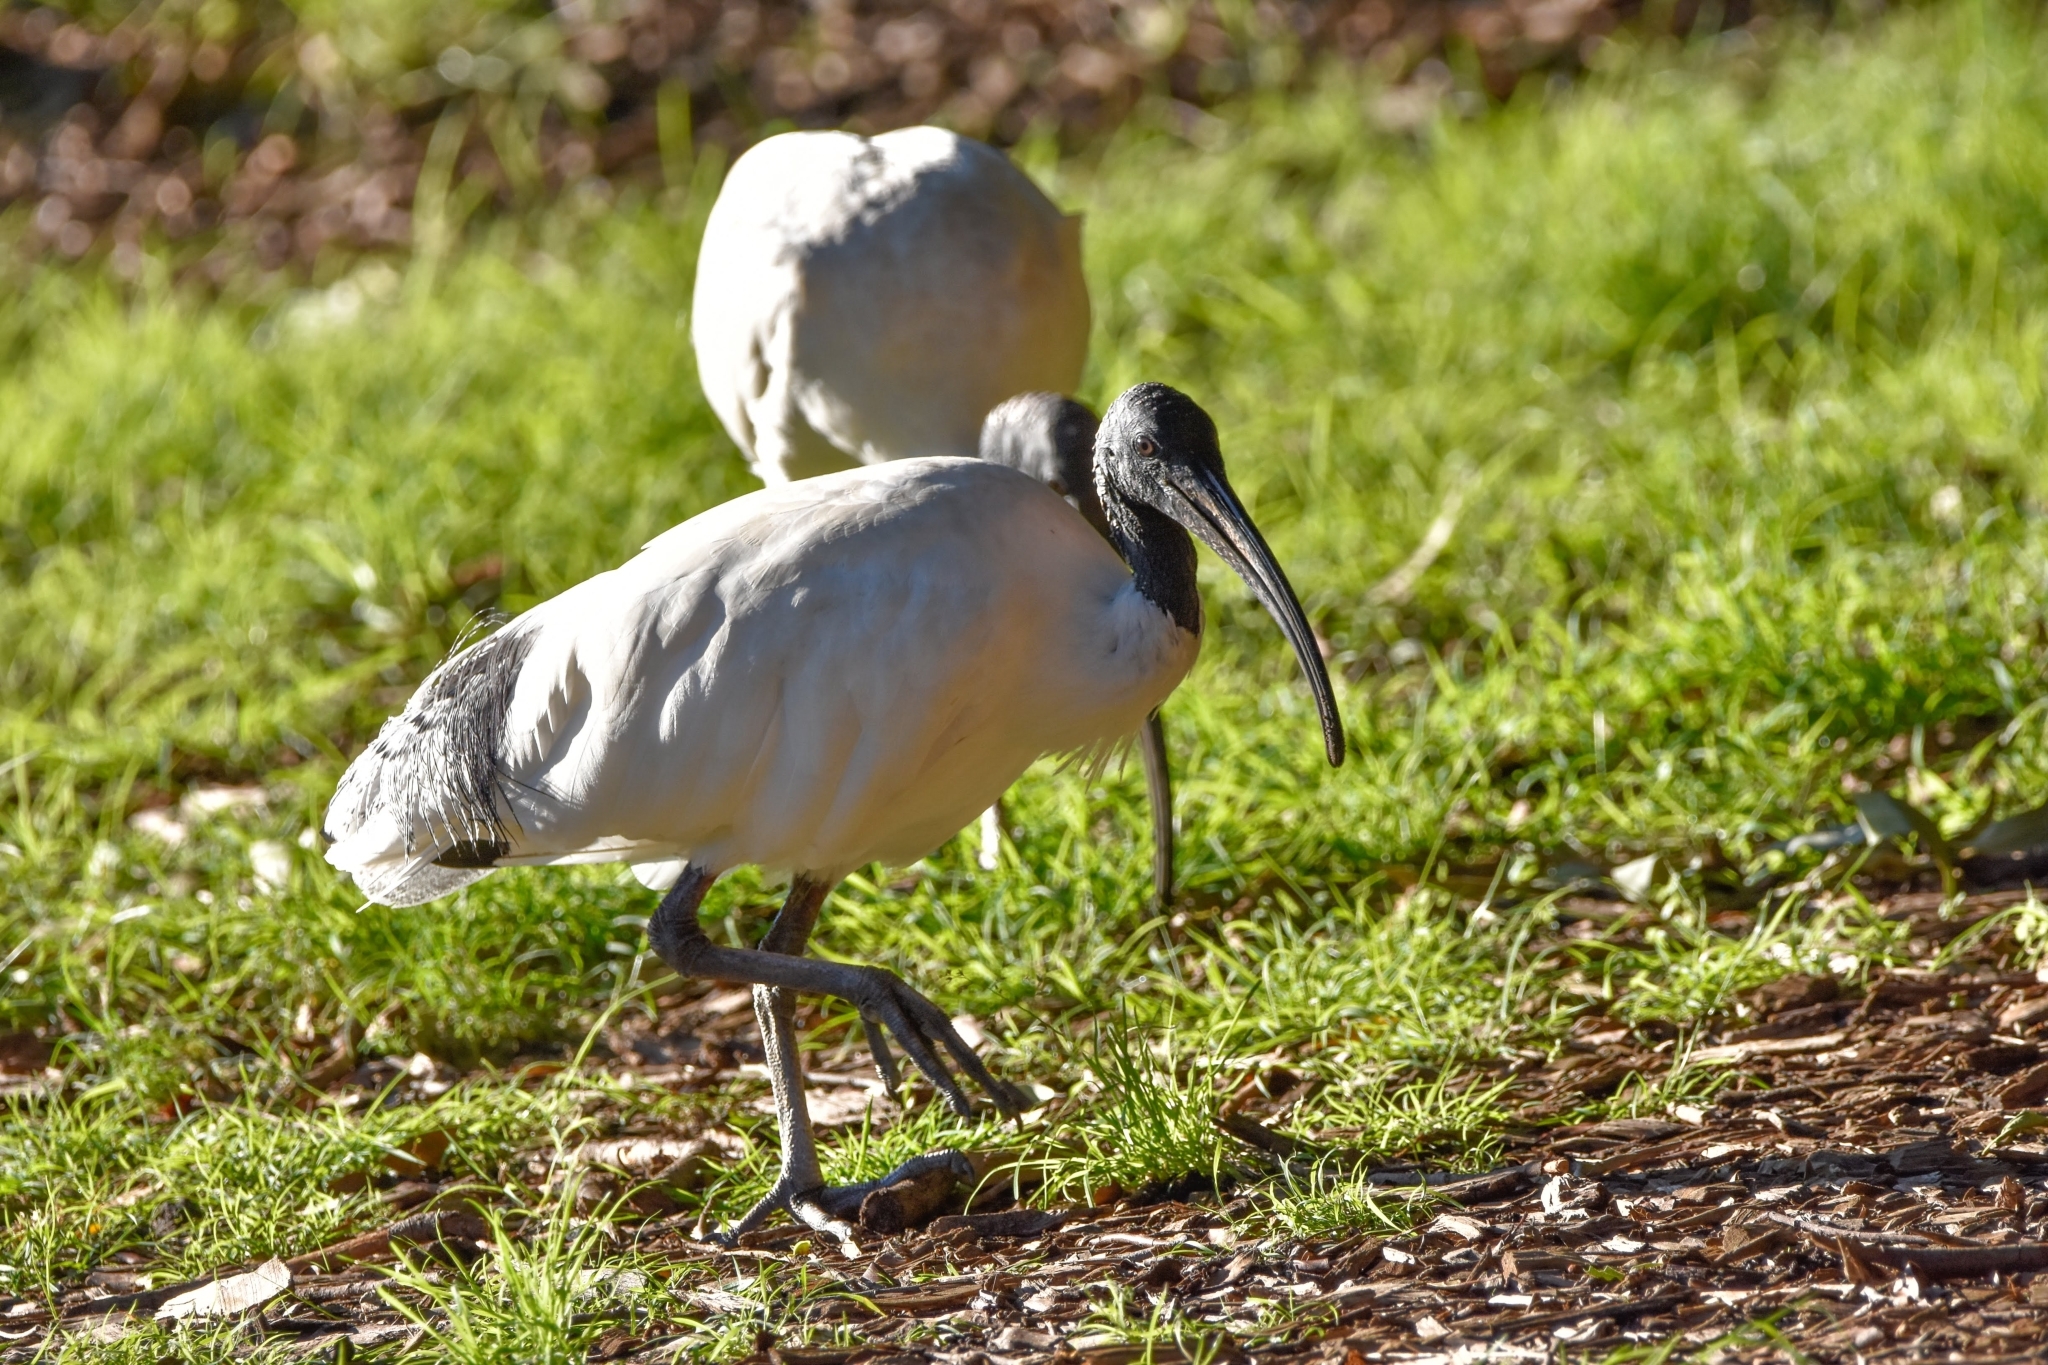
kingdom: Animalia
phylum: Chordata
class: Aves
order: Pelecaniformes
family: Threskiornithidae
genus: Threskiornis
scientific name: Threskiornis molucca
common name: Australian white ibis
